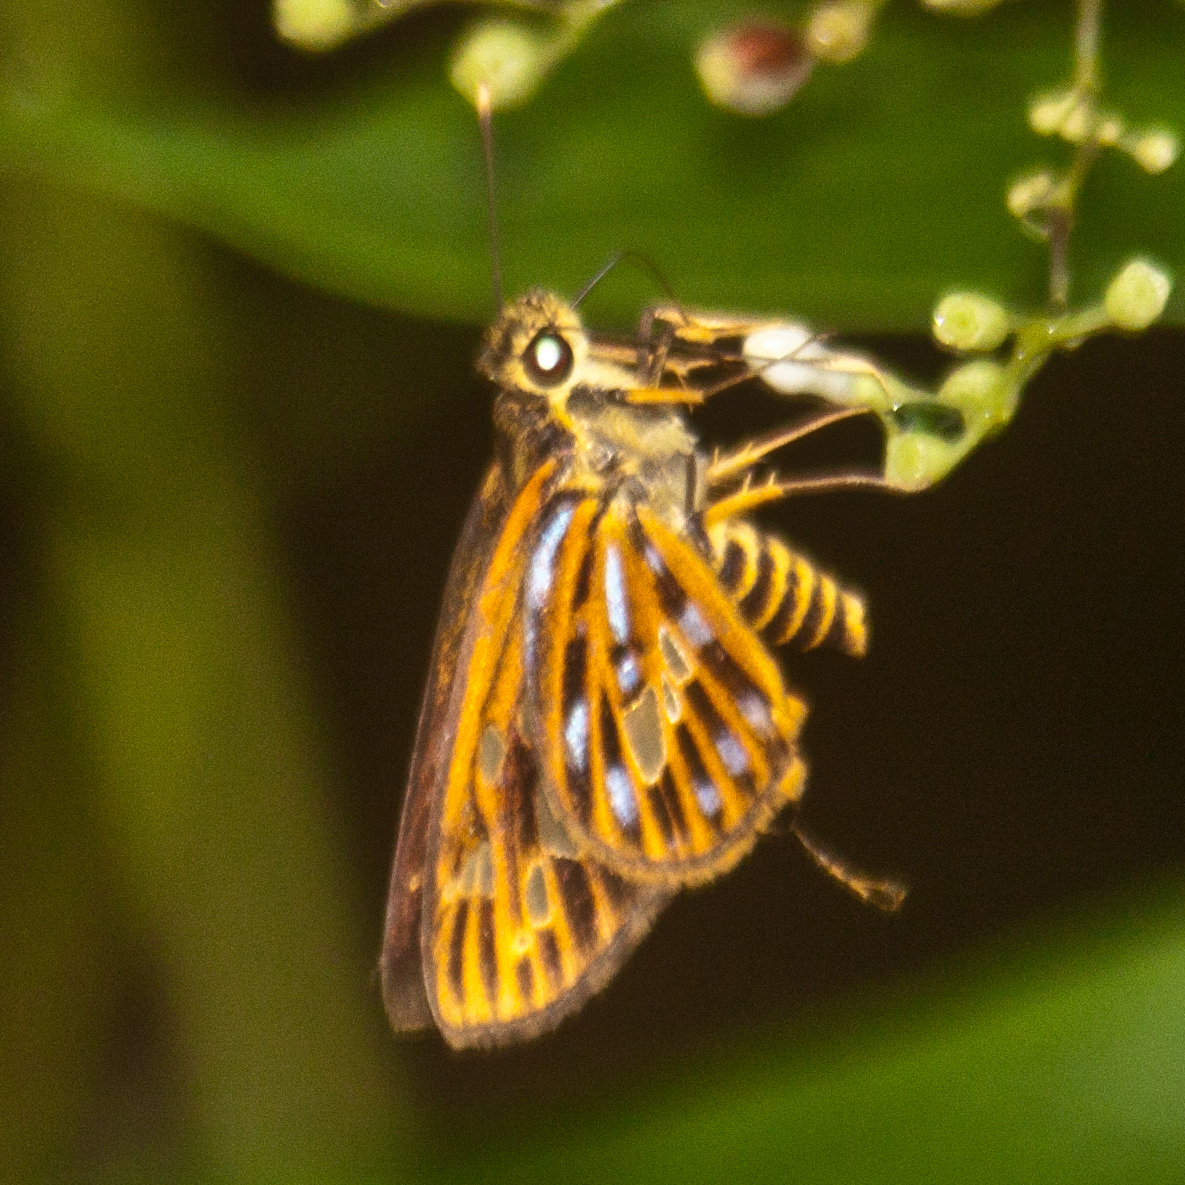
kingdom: Animalia
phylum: Arthropoda
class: Insecta
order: Lepidoptera
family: Hesperiidae
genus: Pyroneura
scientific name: Pyroneura margherita
